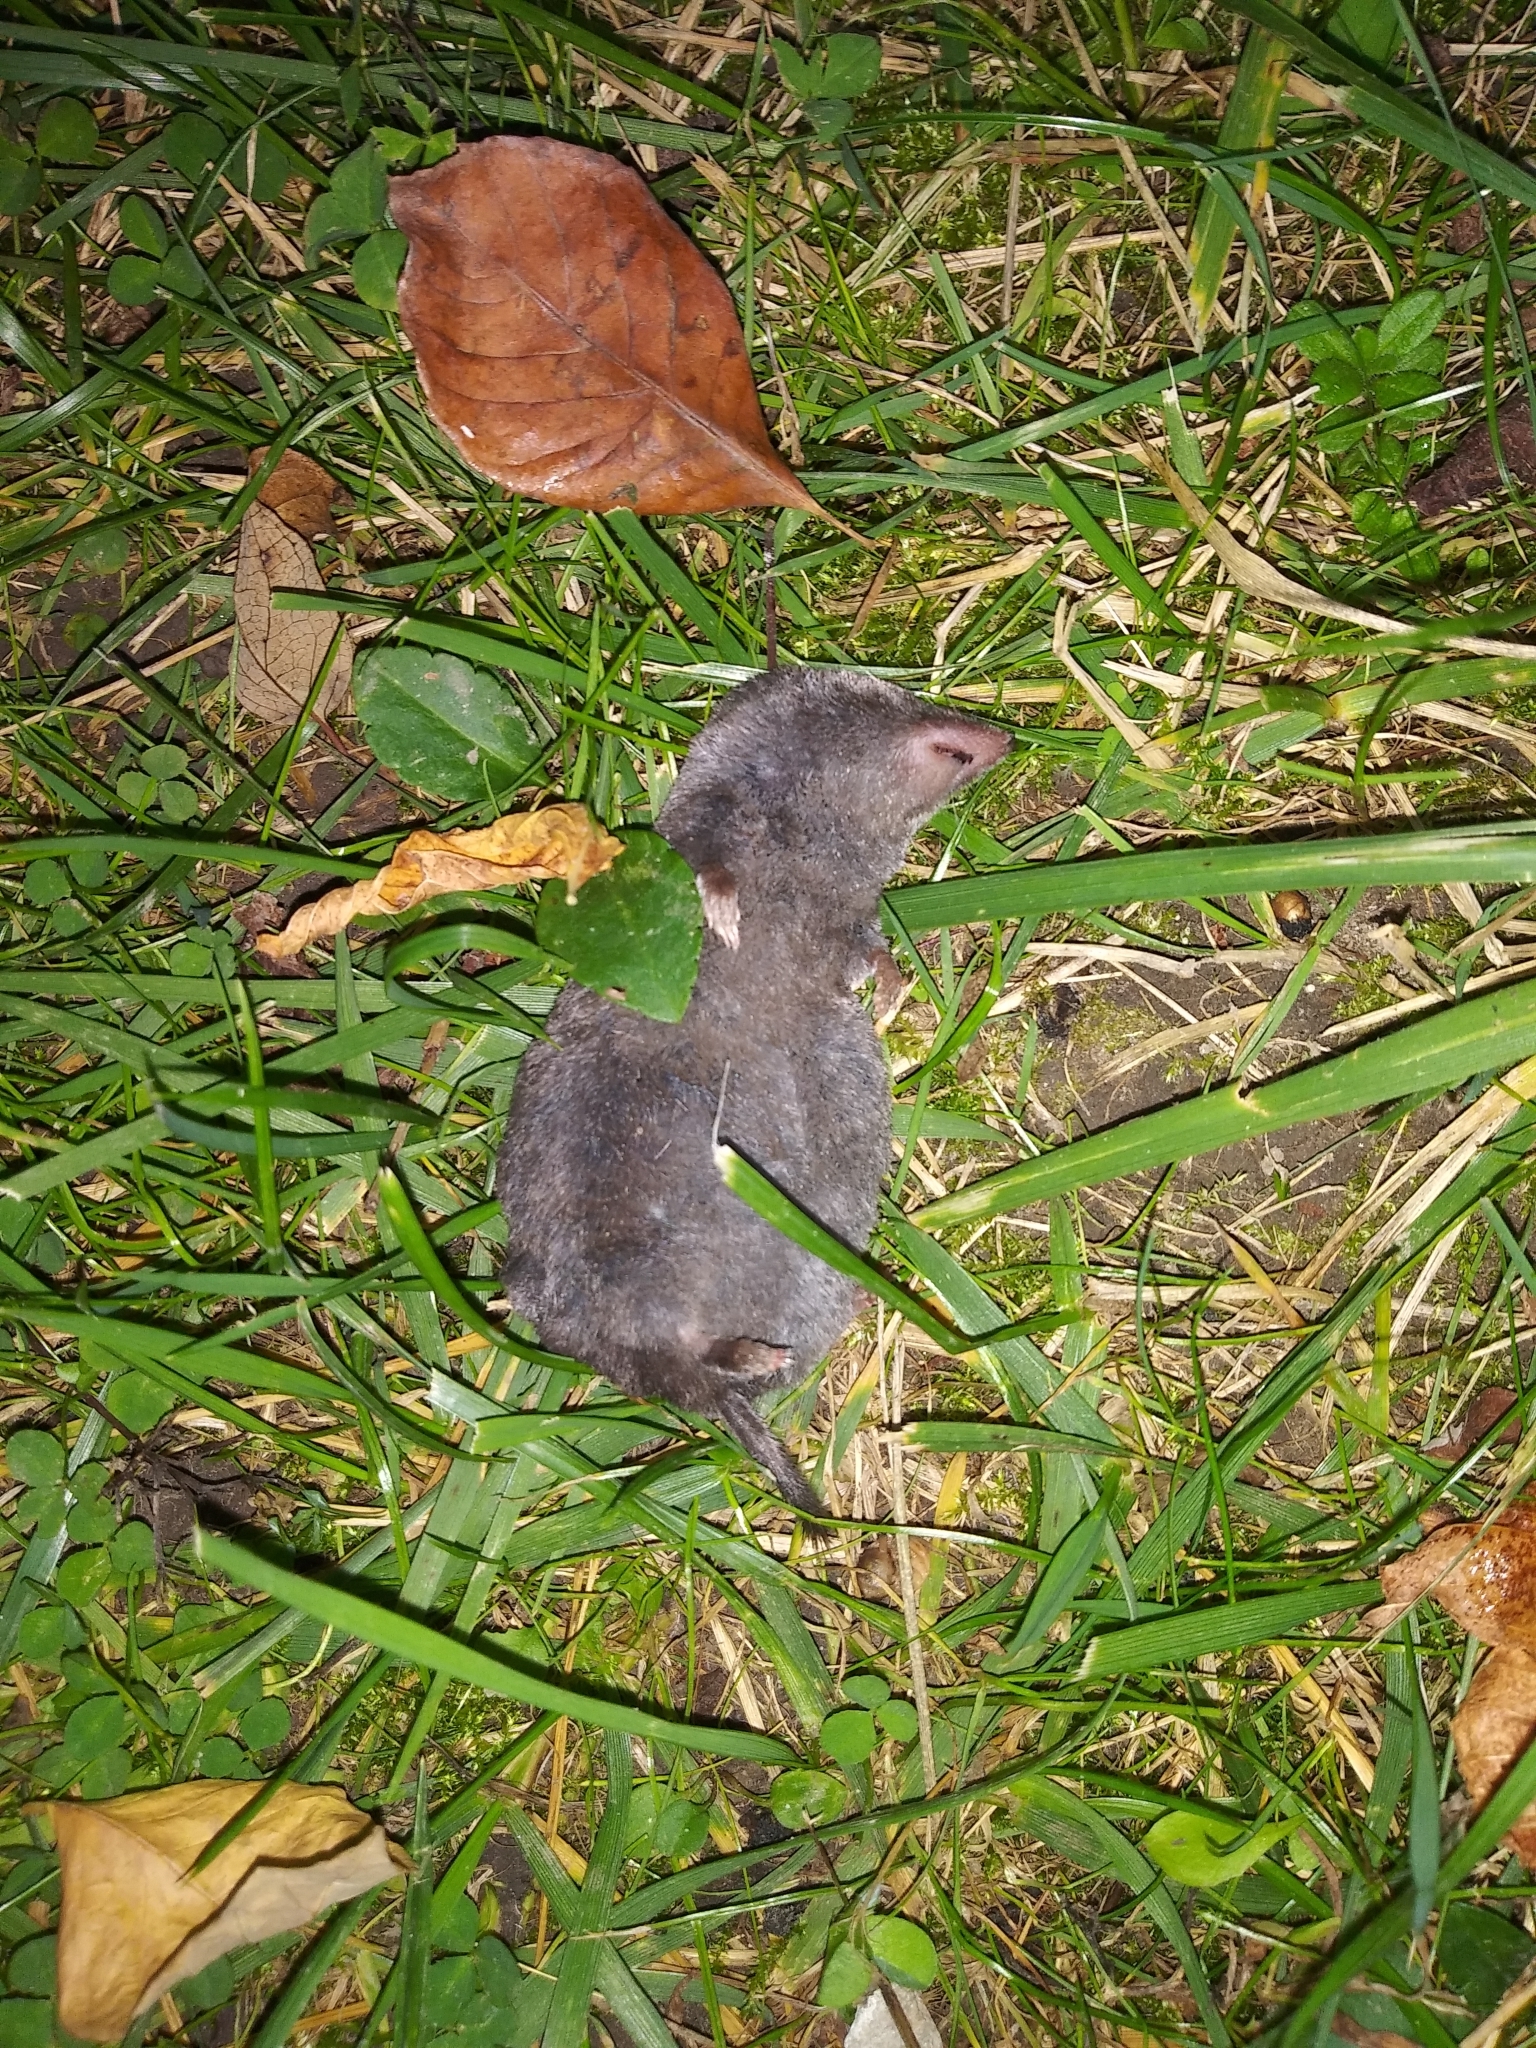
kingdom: Animalia
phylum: Chordata
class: Mammalia
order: Soricomorpha
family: Soricidae
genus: Blarina
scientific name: Blarina brevicauda
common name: Northern short-tailed shrew
